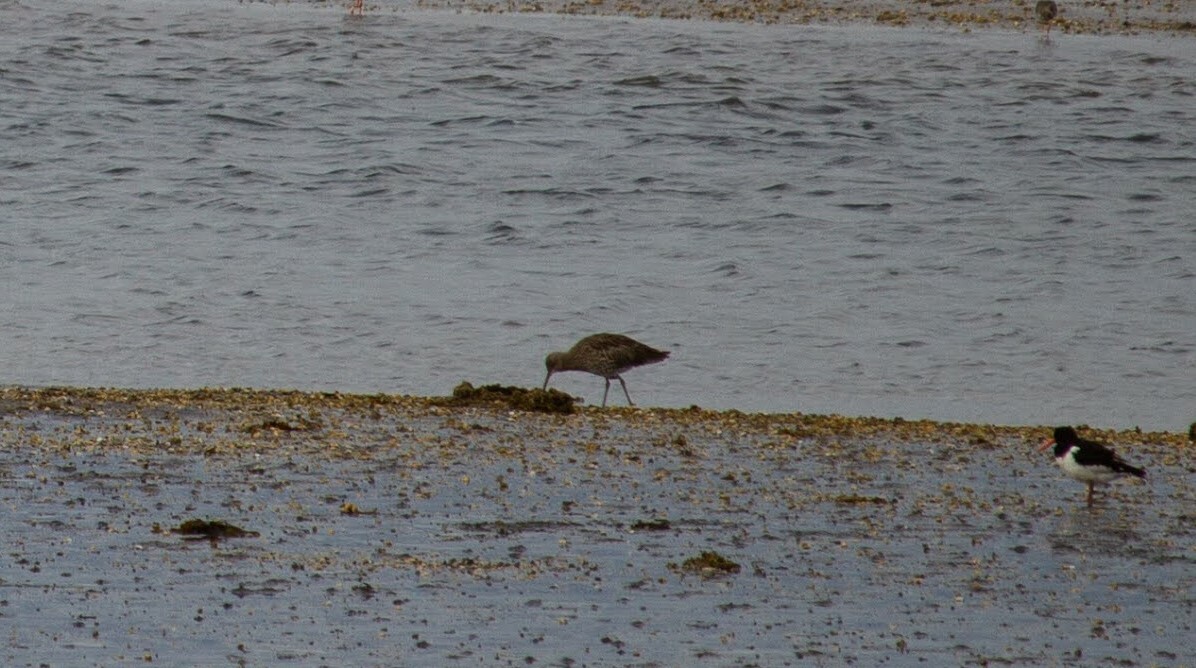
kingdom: Animalia
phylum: Chordata
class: Aves
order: Charadriiformes
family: Scolopacidae
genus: Numenius
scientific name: Numenius arquata
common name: Eurasian curlew
